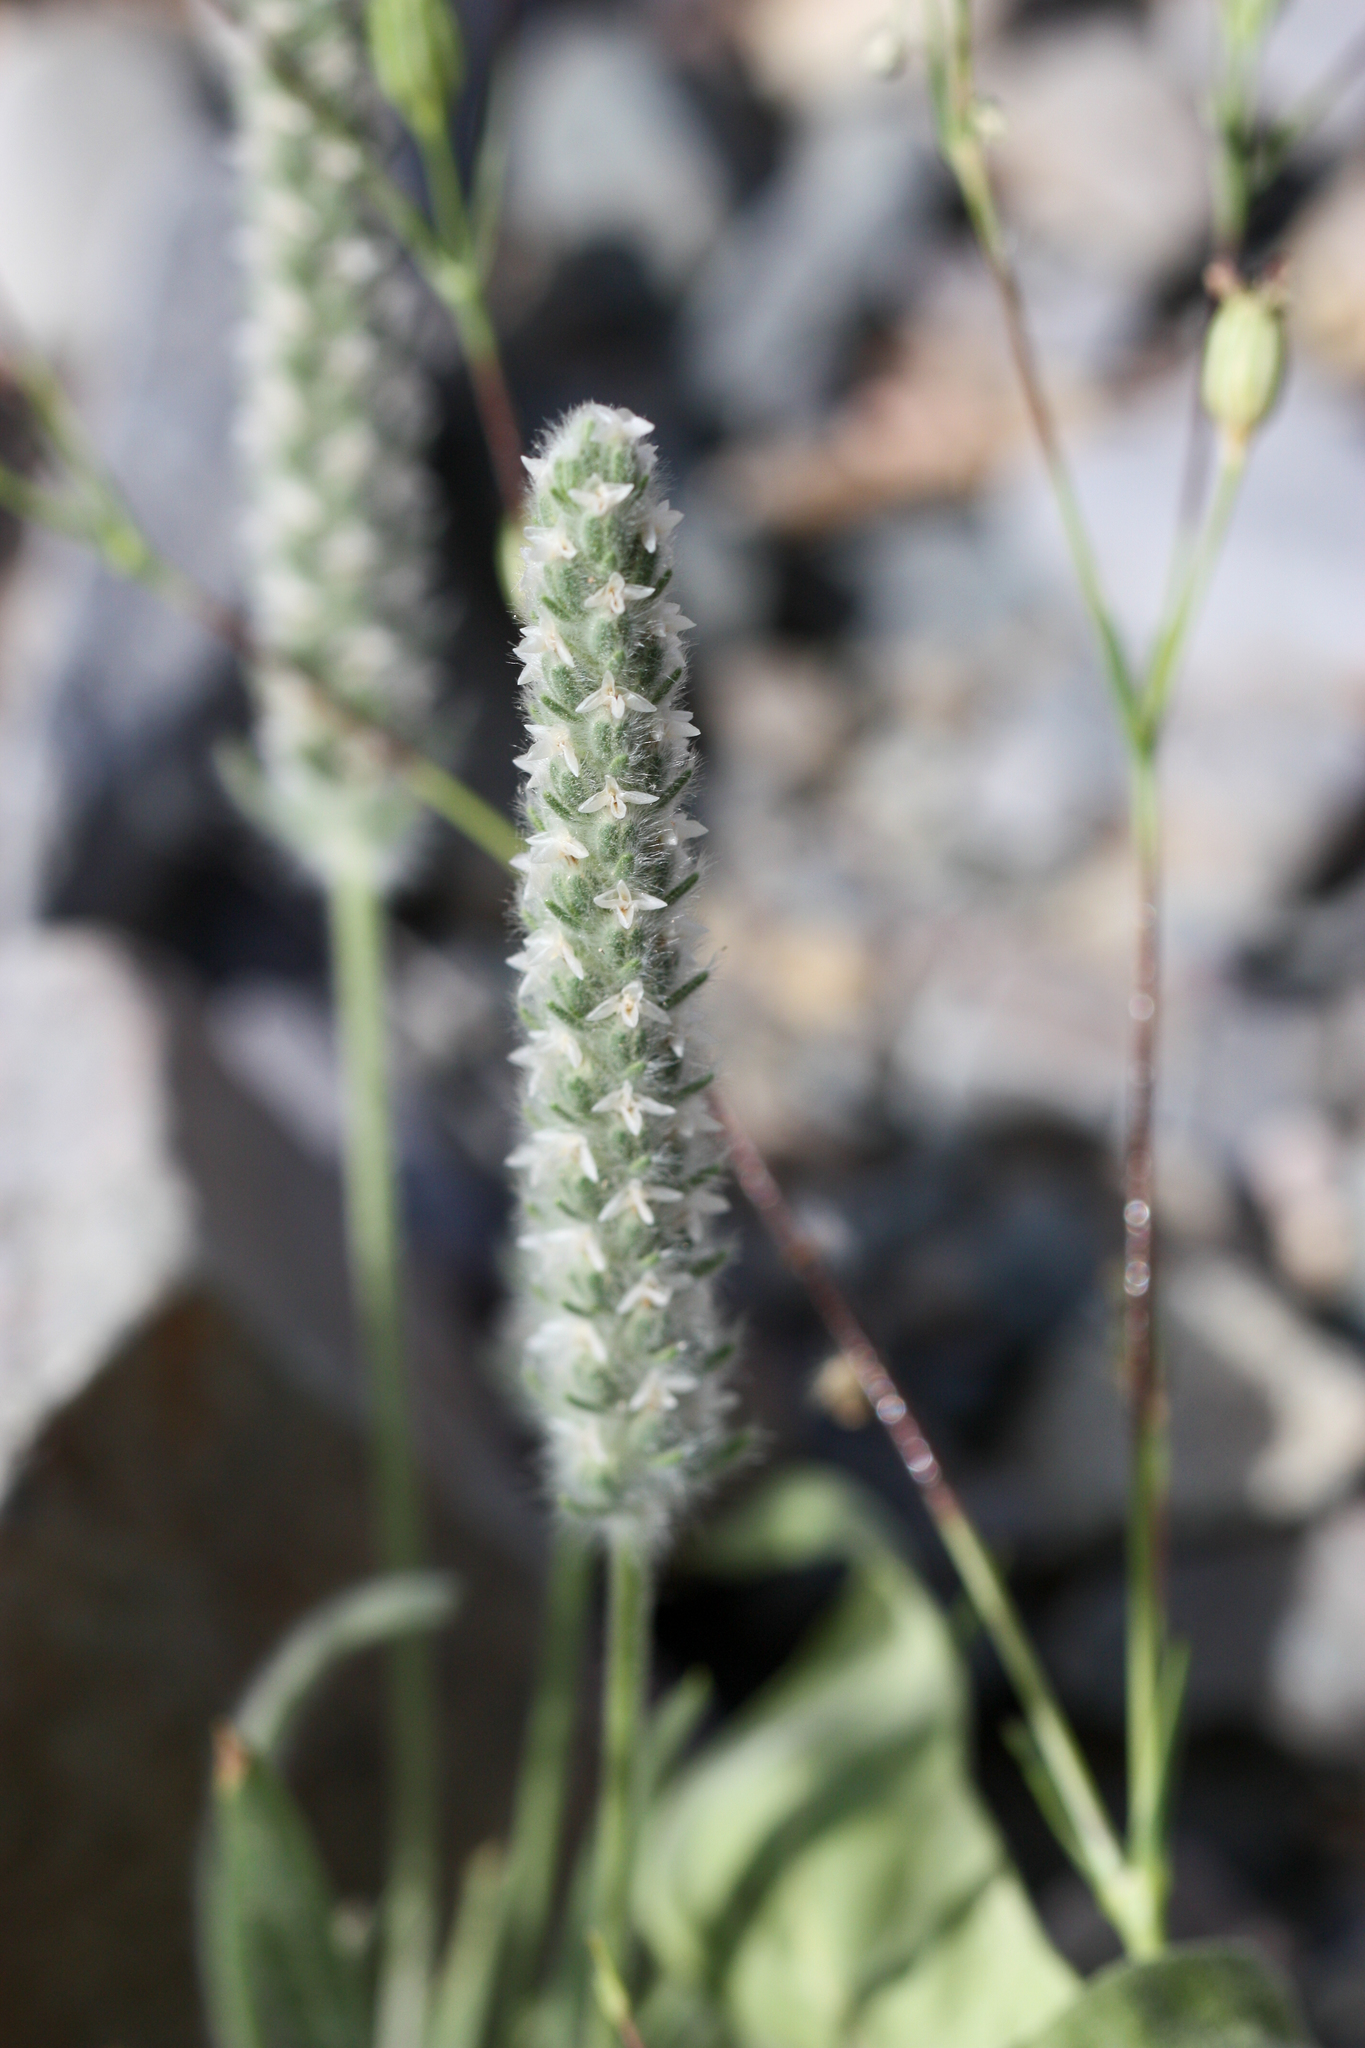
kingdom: Plantae
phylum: Tracheophyta
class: Magnoliopsida
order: Lamiales
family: Plantaginaceae
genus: Plantago
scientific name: Plantago patagonica
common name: Patagonia indian-wheat
